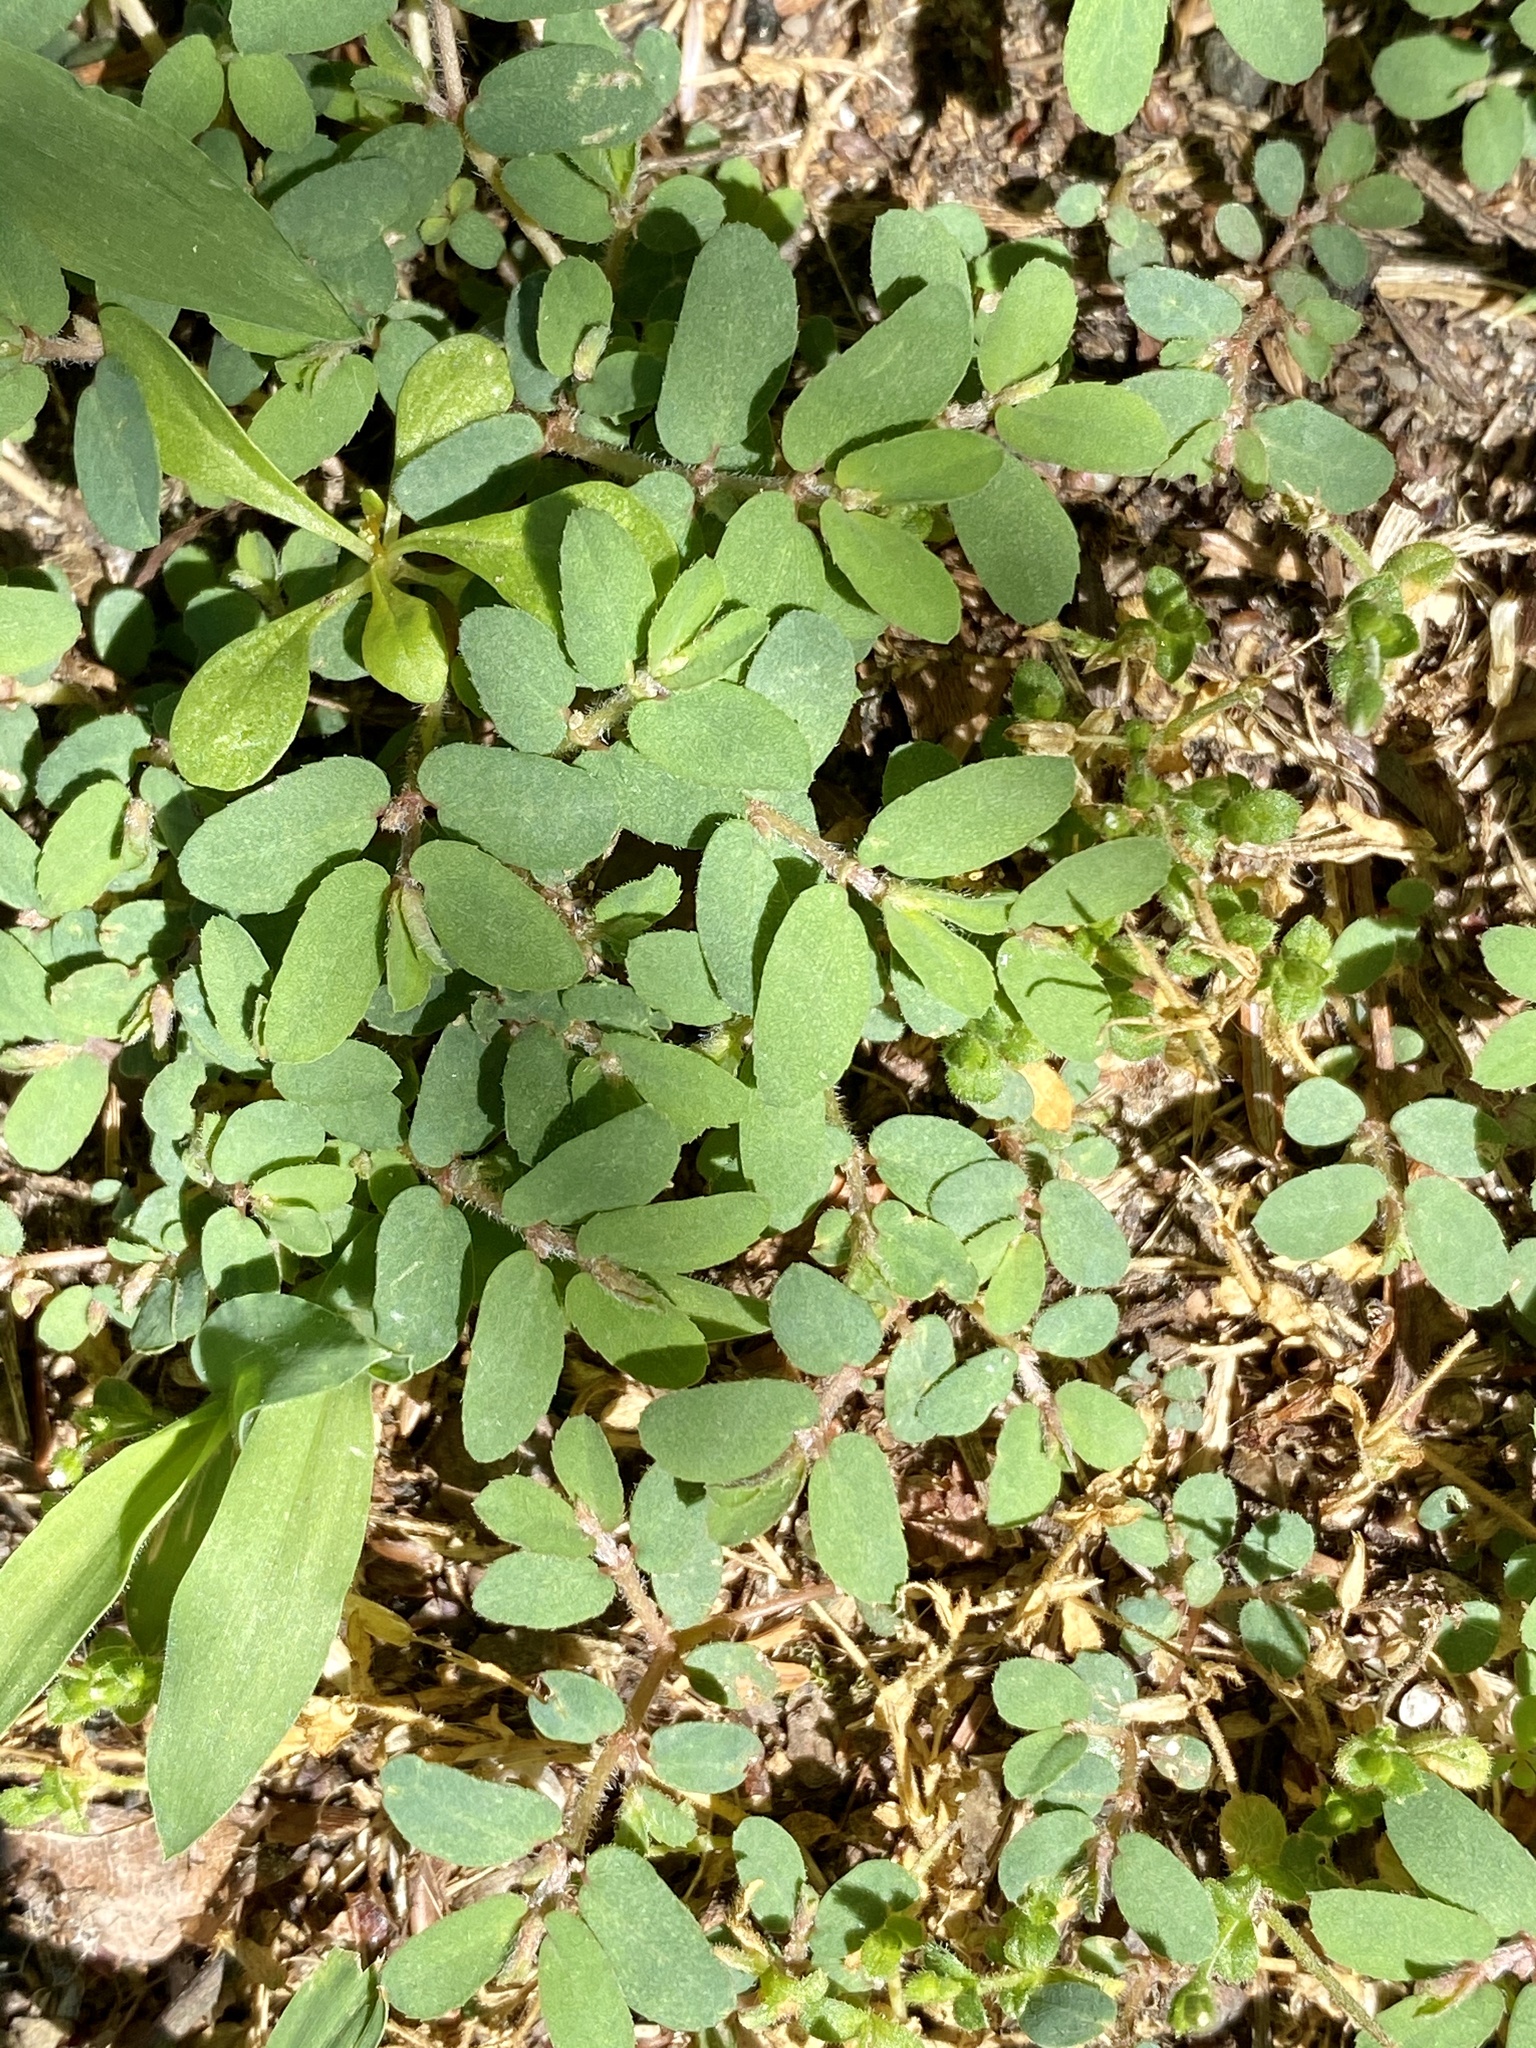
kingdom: Plantae
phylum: Tracheophyta
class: Magnoliopsida
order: Malpighiales
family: Euphorbiaceae
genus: Euphorbia
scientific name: Euphorbia maculata
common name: Spotted spurge
